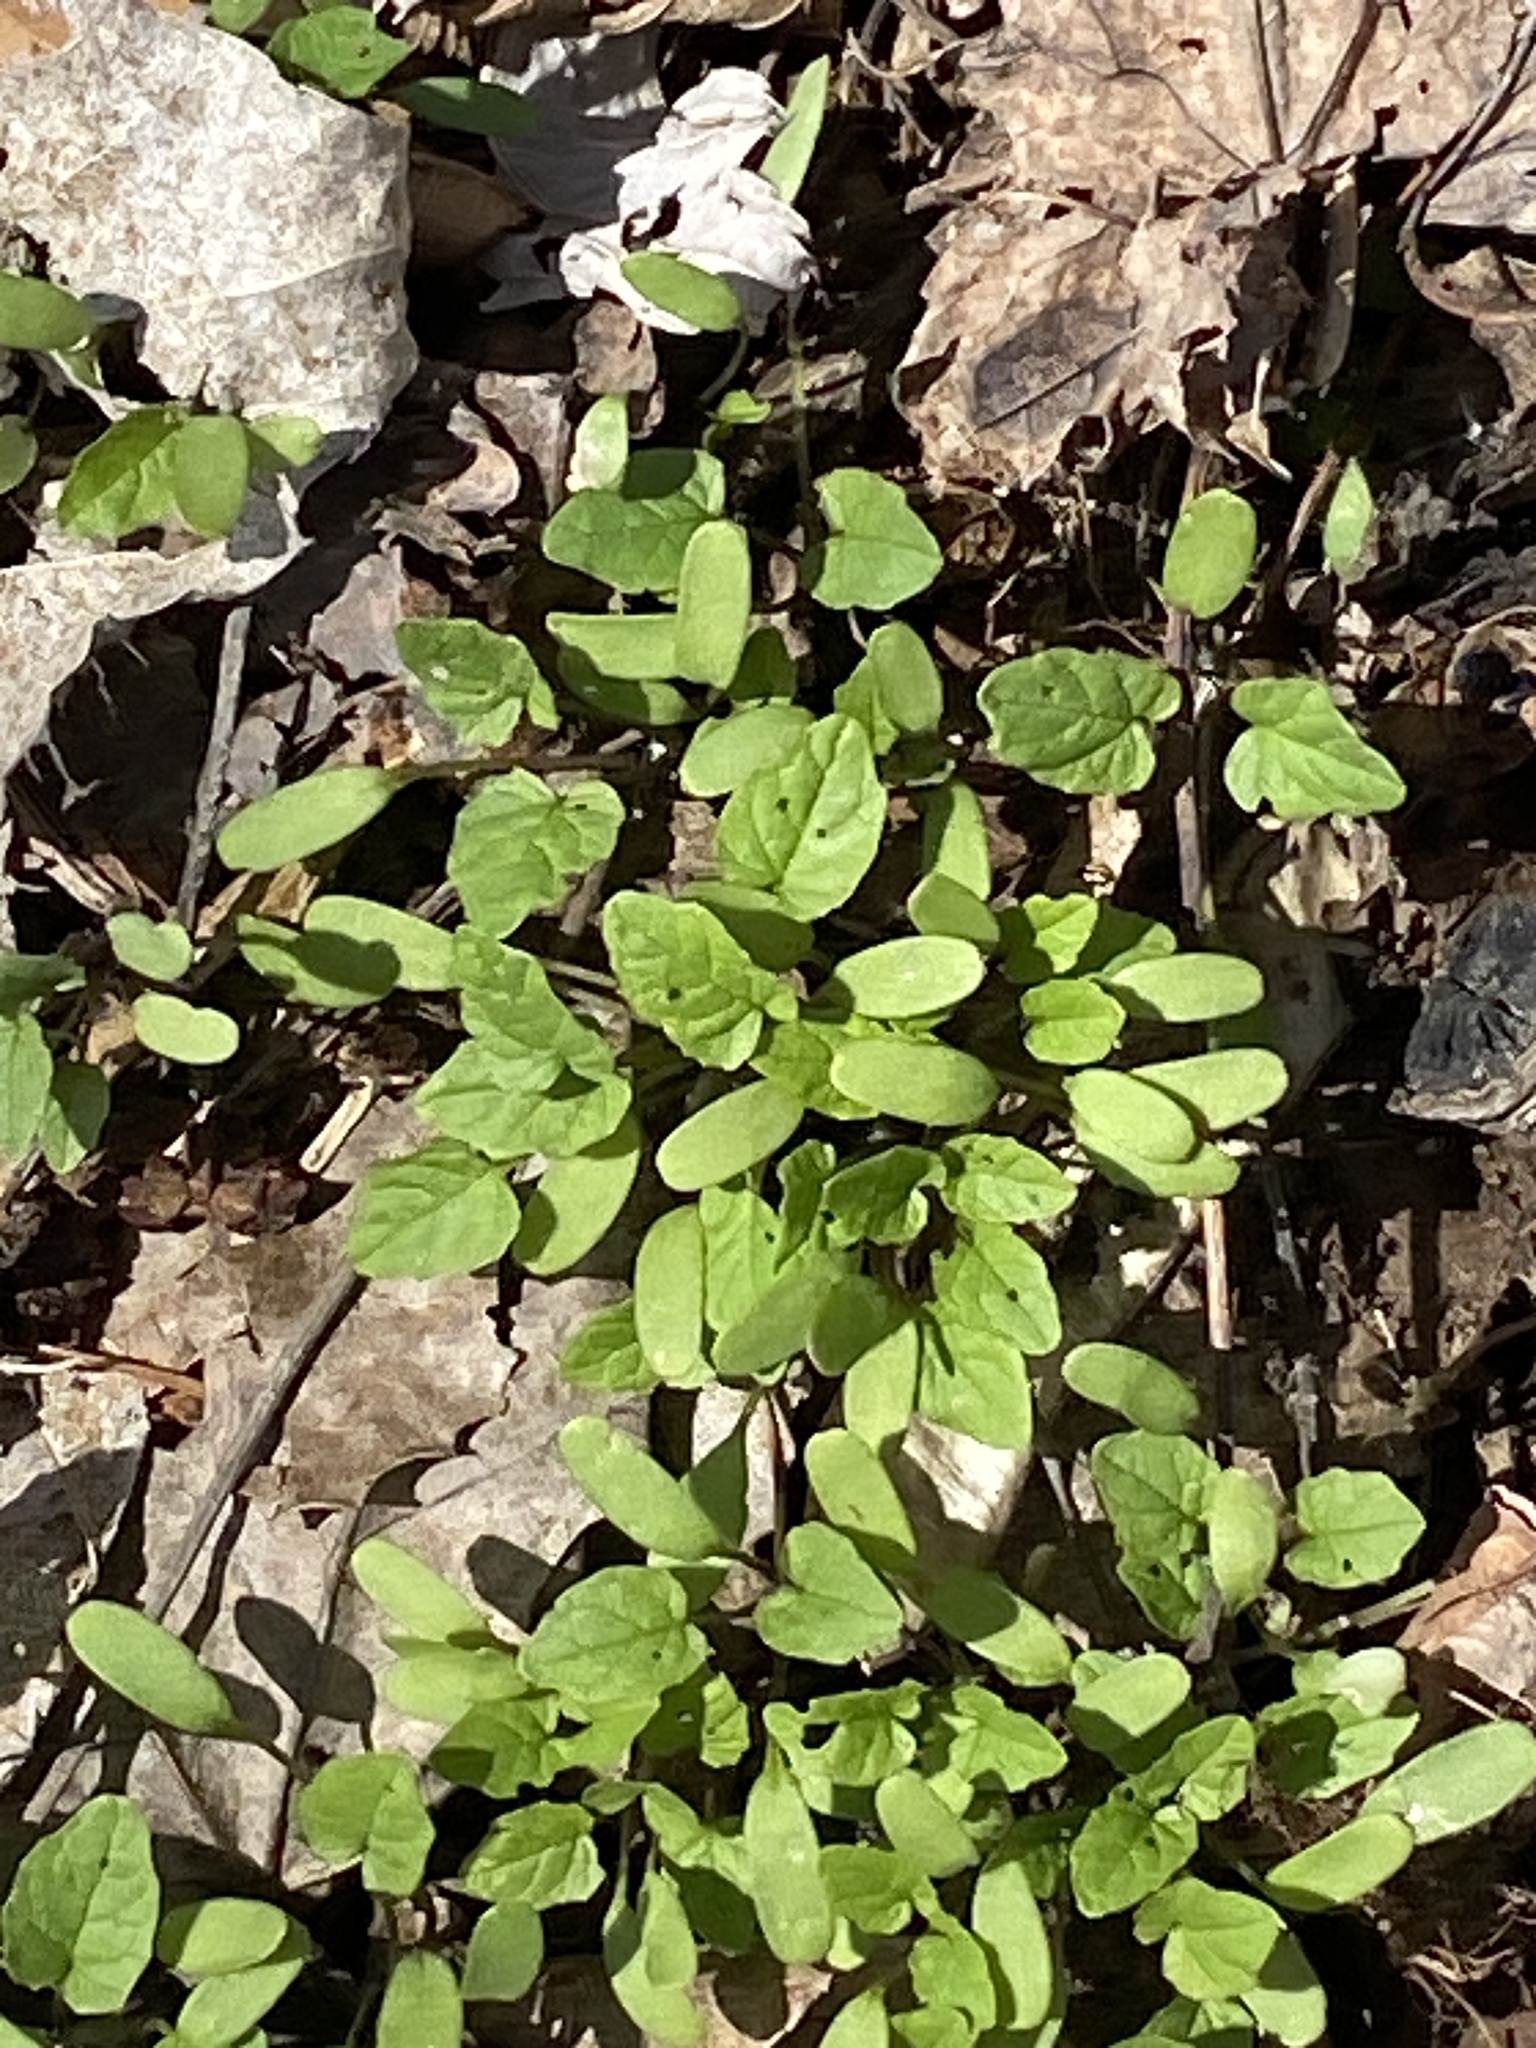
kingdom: Plantae
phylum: Tracheophyta
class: Magnoliopsida
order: Brassicales
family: Brassicaceae
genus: Alliaria
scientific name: Alliaria petiolata
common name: Garlic mustard
